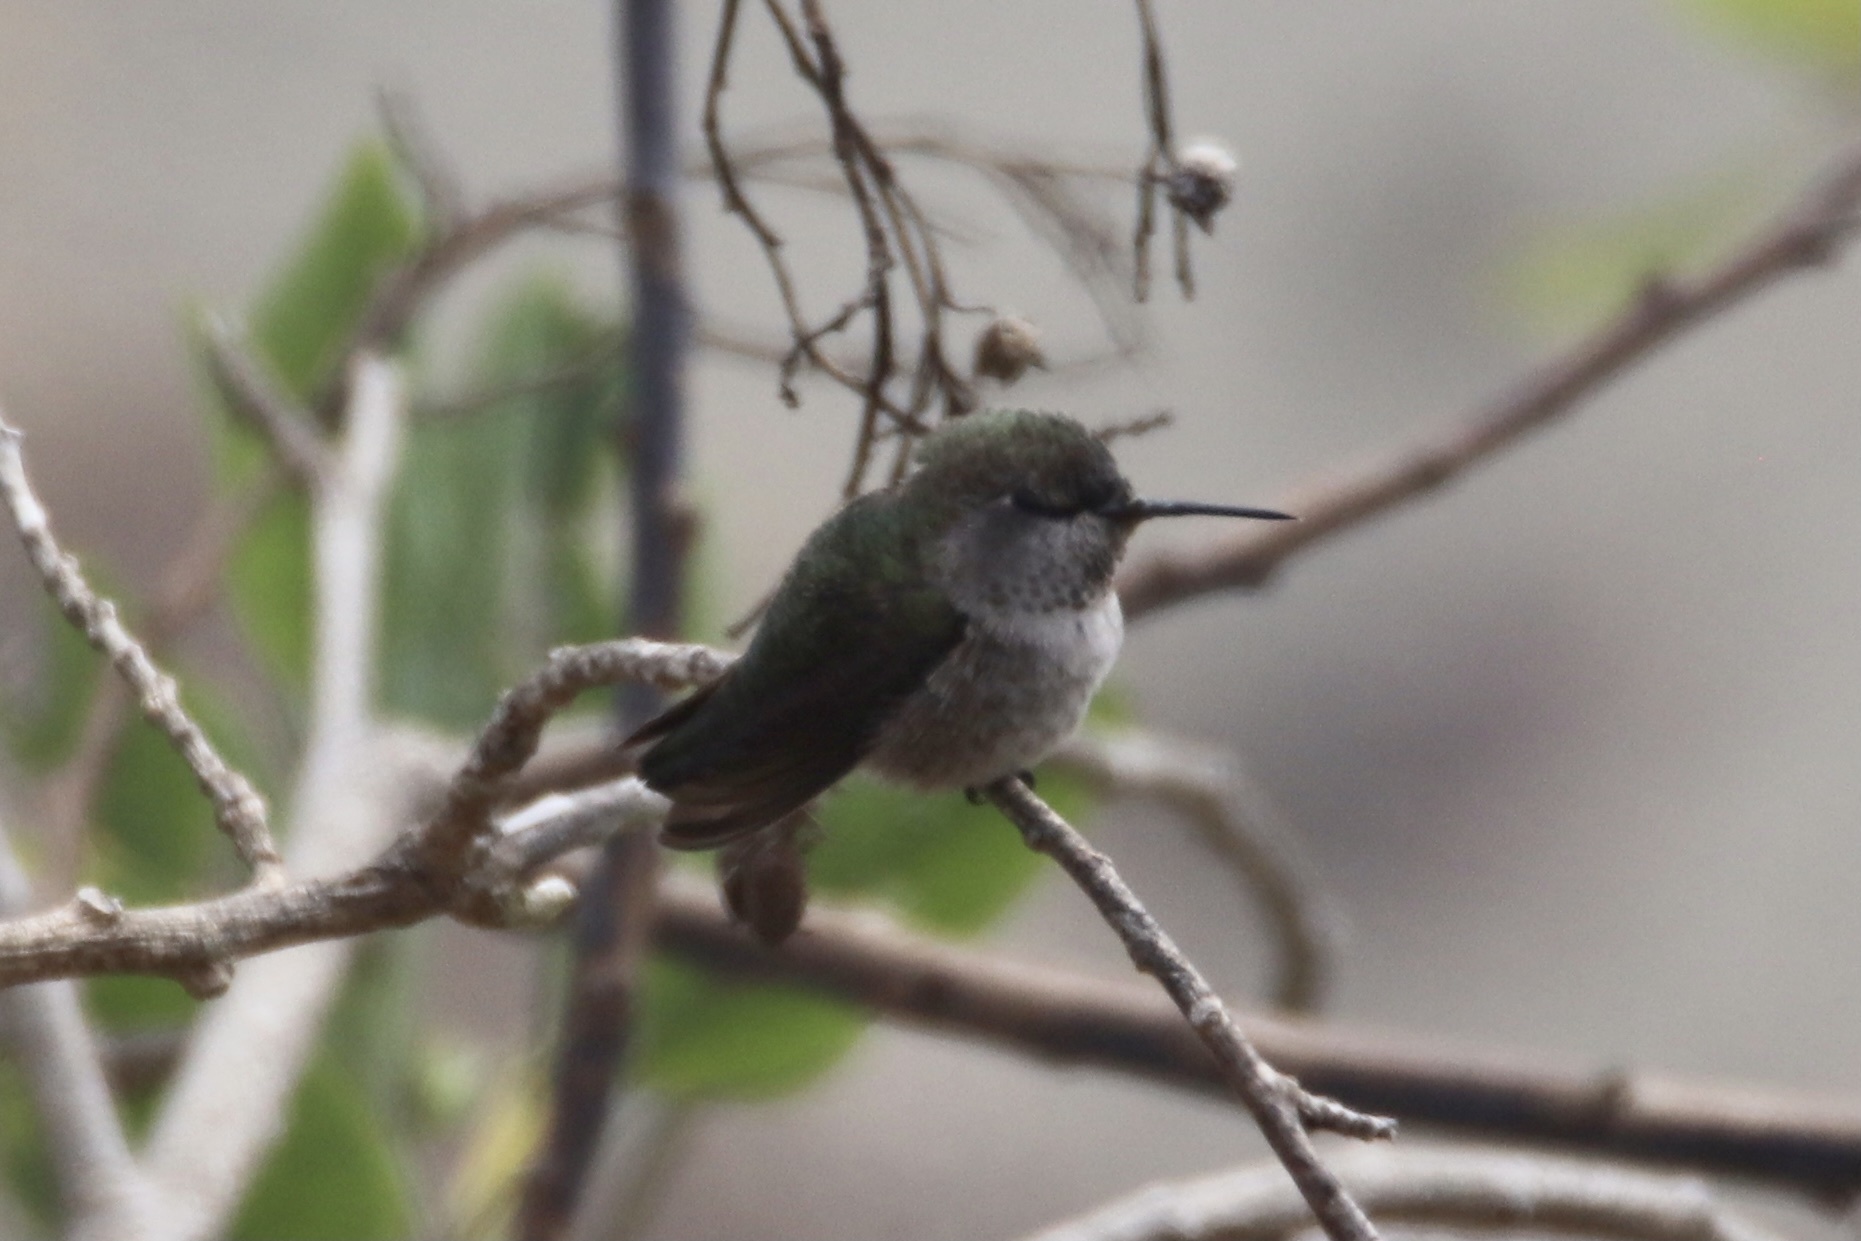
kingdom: Animalia
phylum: Chordata
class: Aves
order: Apodiformes
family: Trochilidae
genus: Calypte
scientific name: Calypte anna
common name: Anna's hummingbird
